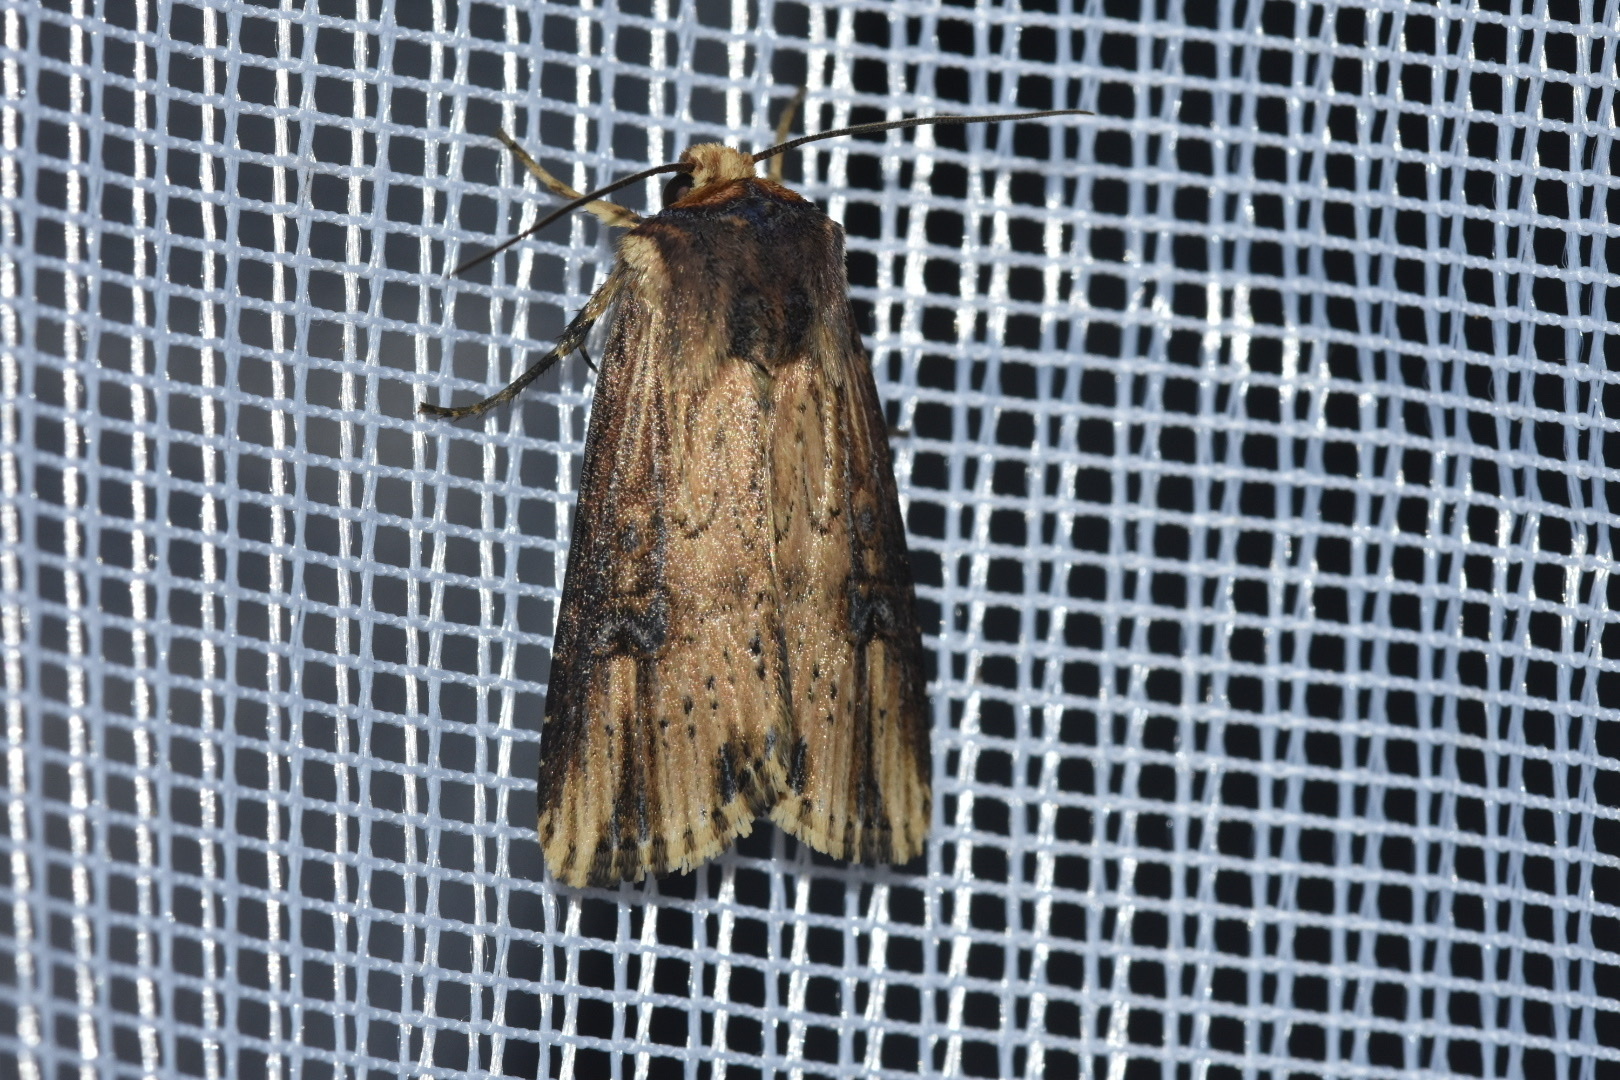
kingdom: Animalia
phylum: Arthropoda
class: Insecta
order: Lepidoptera
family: Noctuidae
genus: Axylia
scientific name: Axylia putris
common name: Flame
